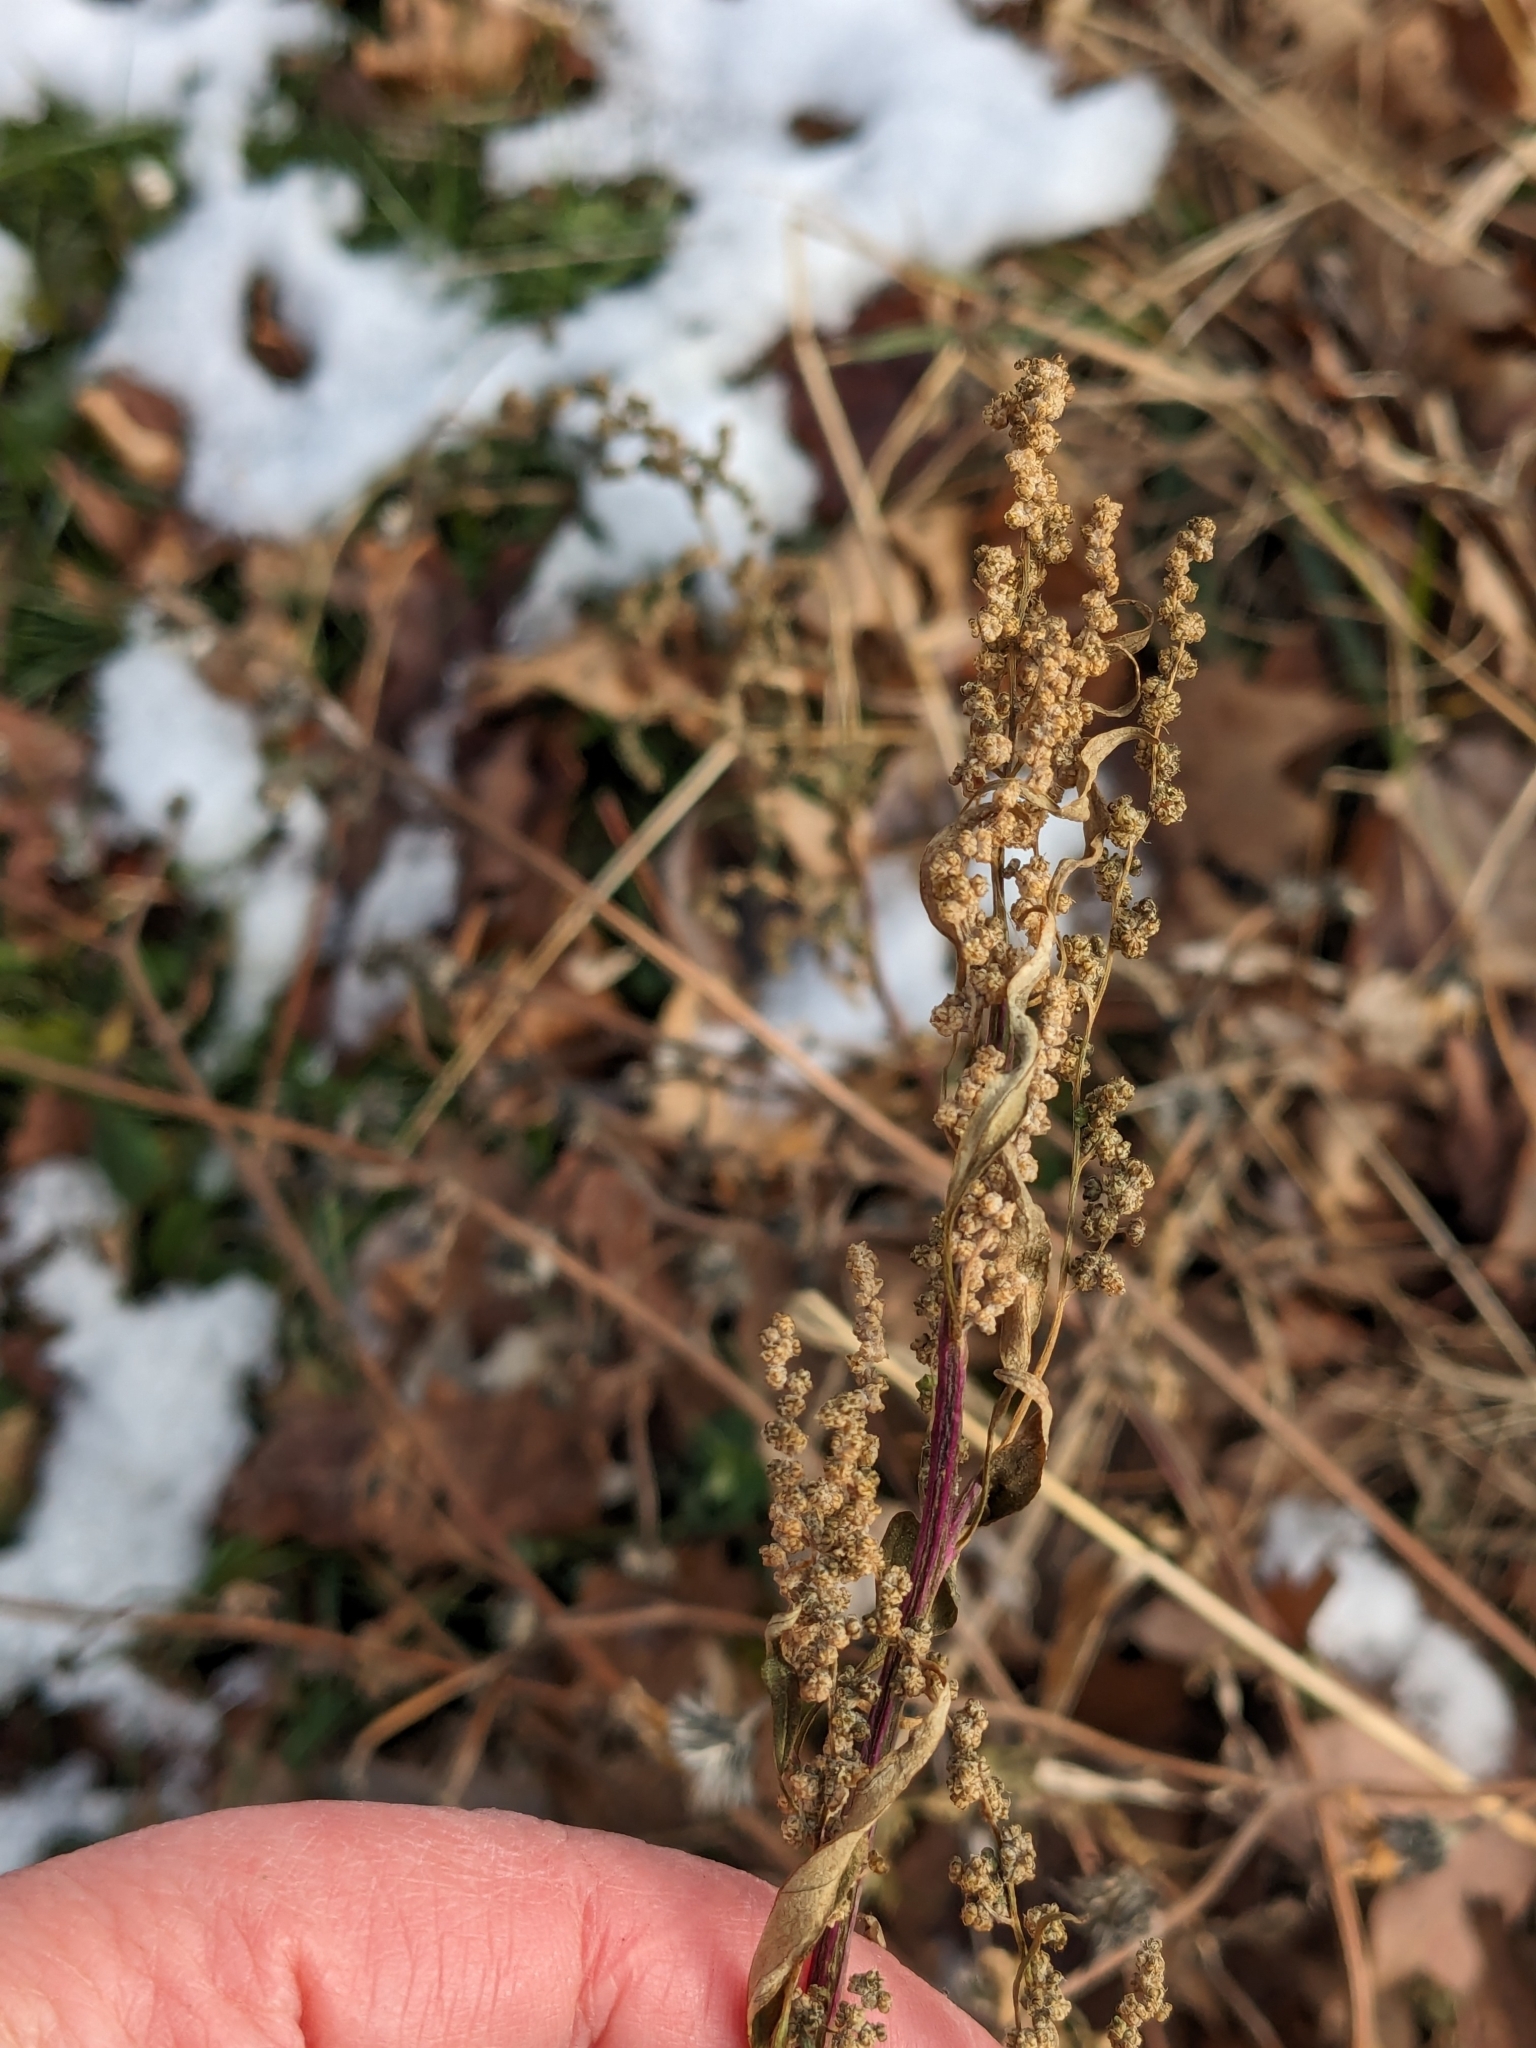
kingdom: Plantae
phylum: Tracheophyta
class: Magnoliopsida
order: Caryophyllales
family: Amaranthaceae
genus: Chenopodium
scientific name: Chenopodium album
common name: Fat-hen
